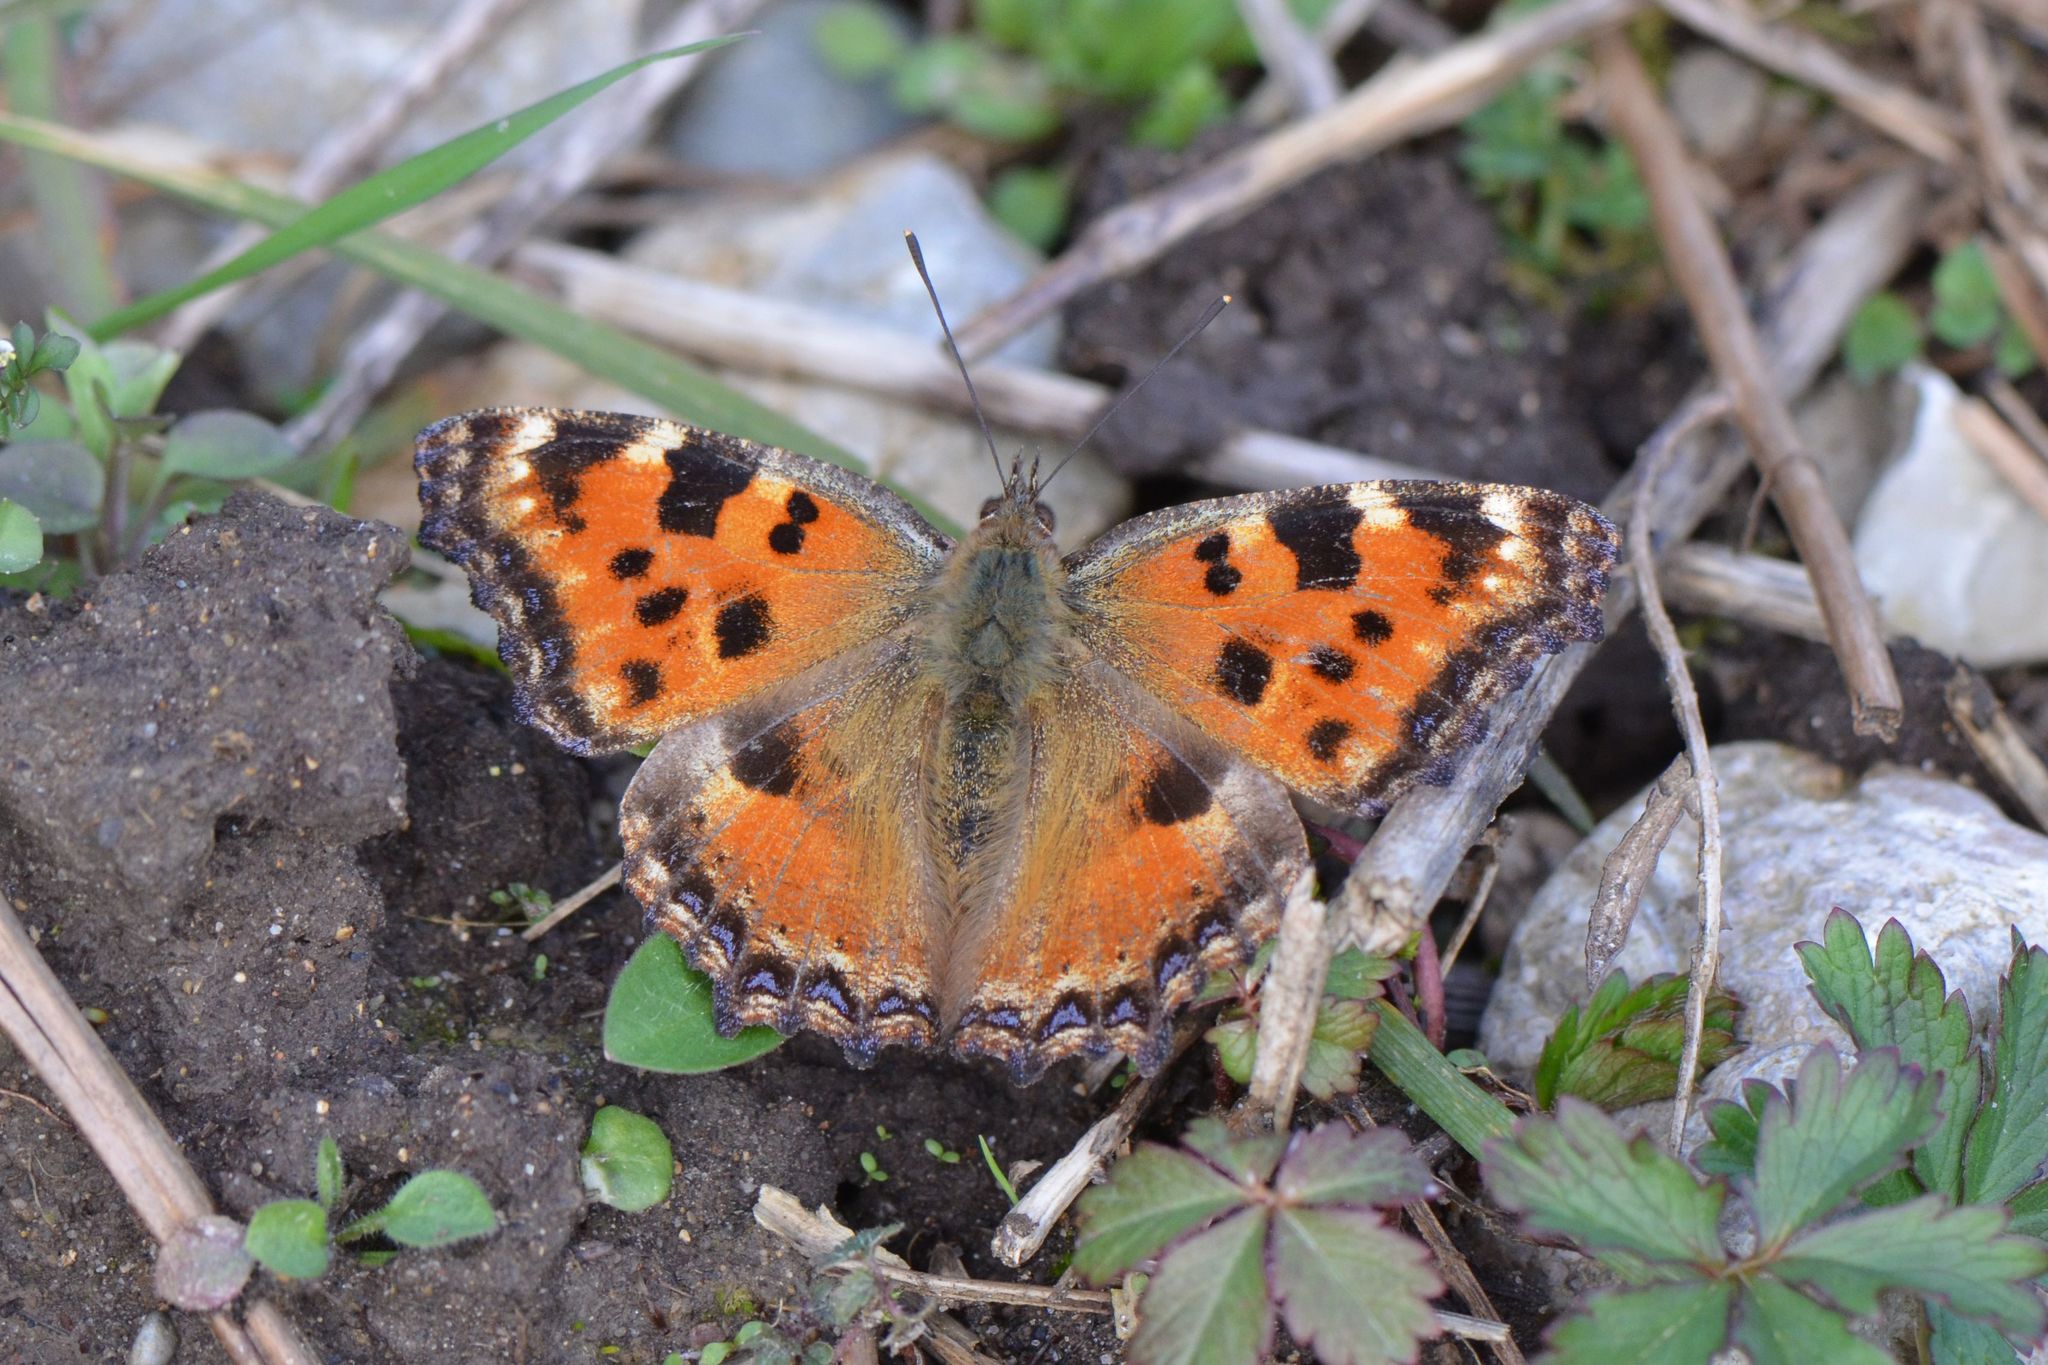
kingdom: Animalia
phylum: Arthropoda
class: Insecta
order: Lepidoptera
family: Nymphalidae
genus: Nymphalis
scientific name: Nymphalis polychloros
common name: Large tortoiseshell
